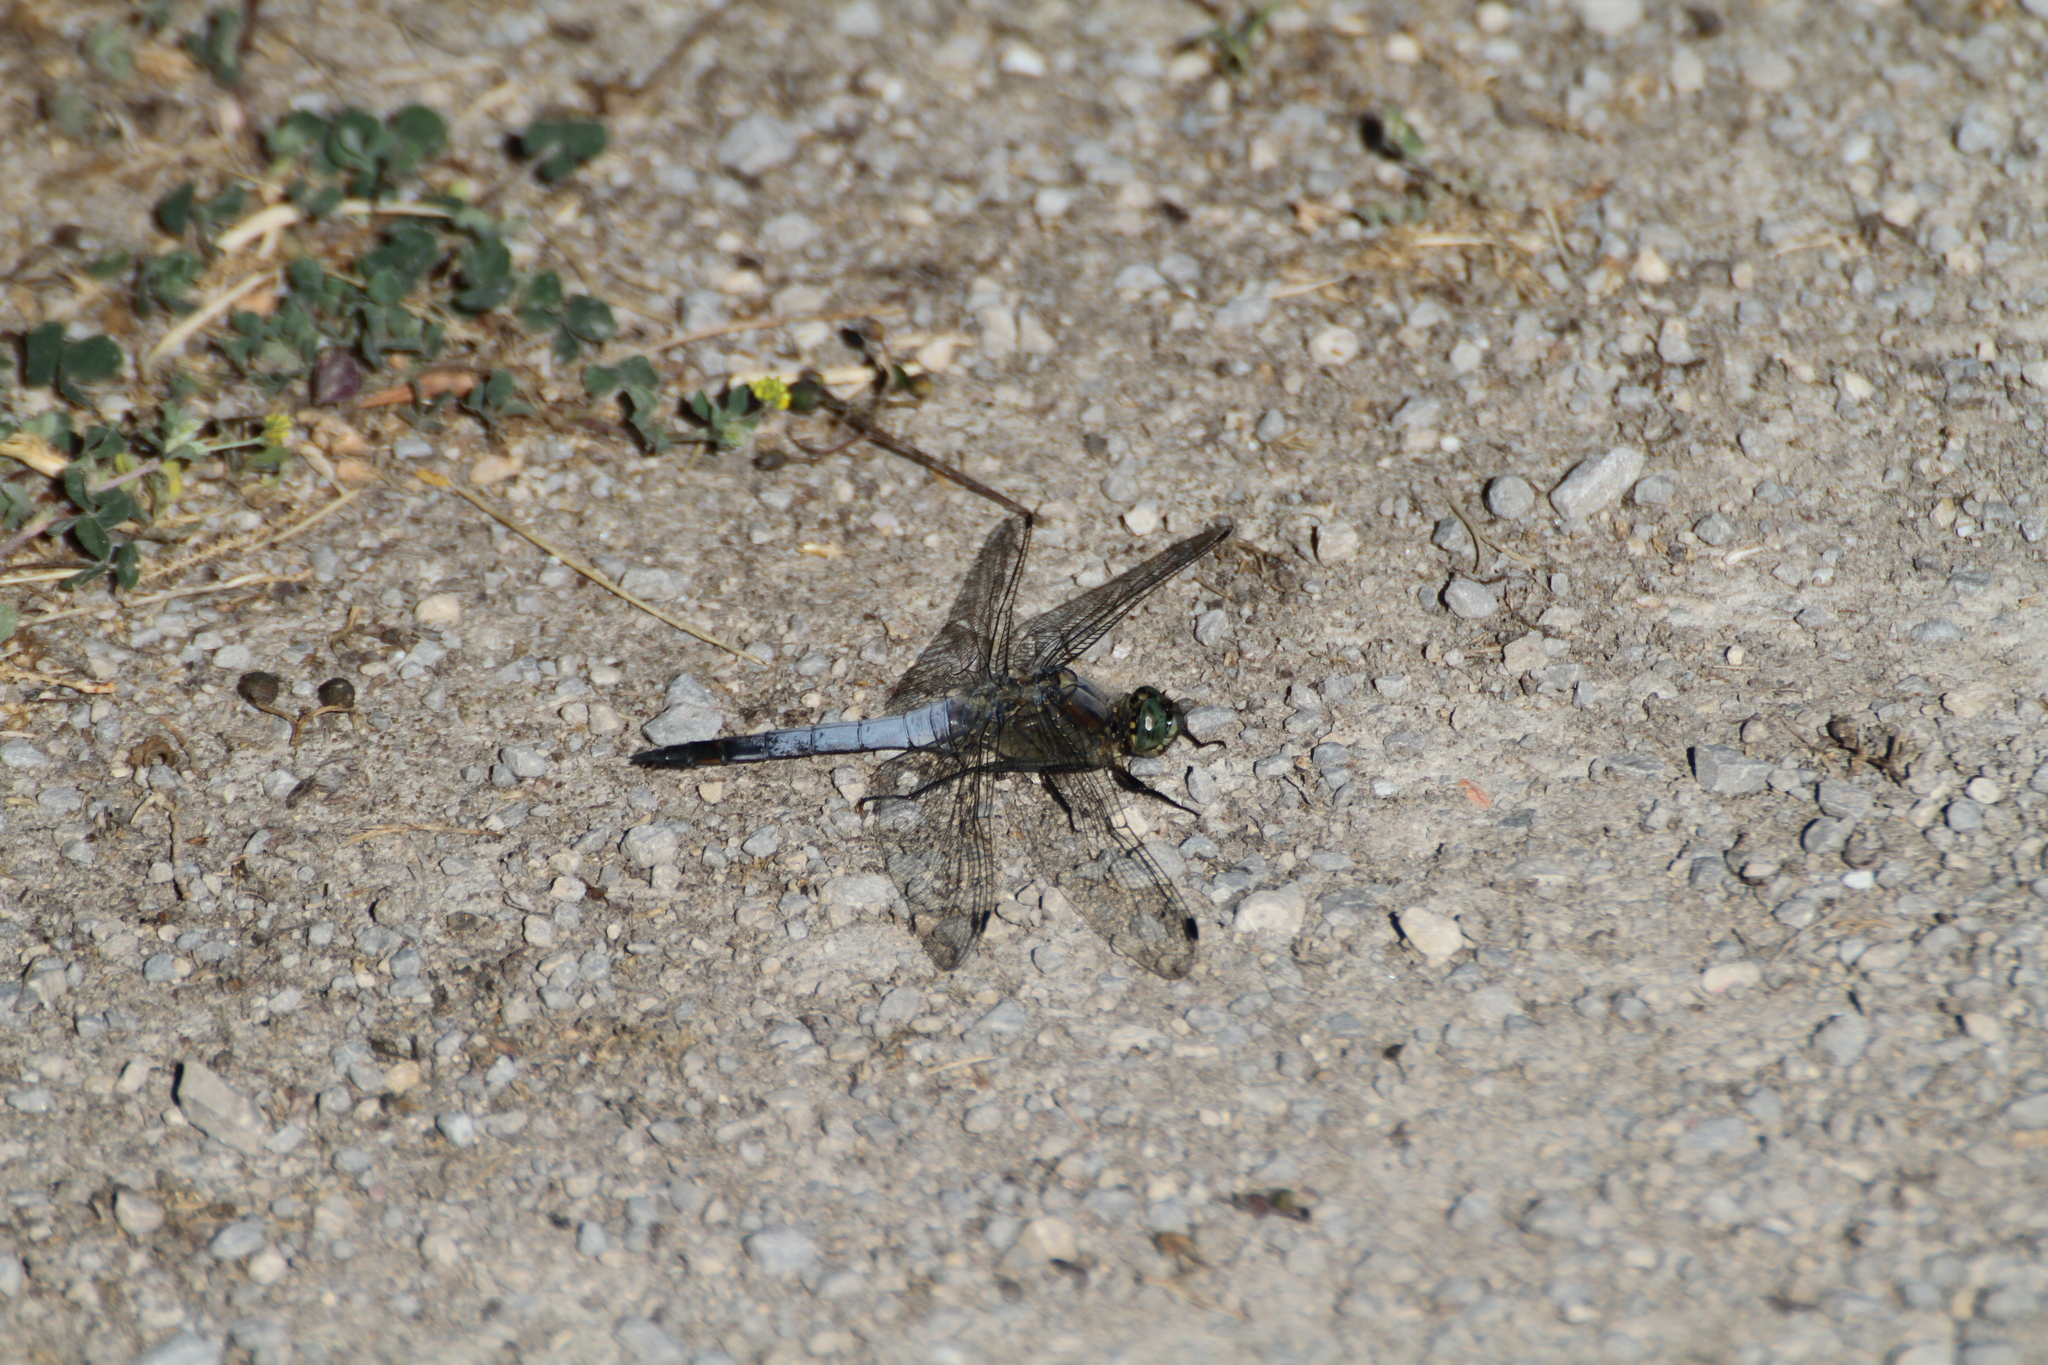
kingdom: Animalia
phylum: Arthropoda
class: Insecta
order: Odonata
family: Libellulidae
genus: Orthetrum
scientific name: Orthetrum cancellatum
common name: Black-tailed skimmer
